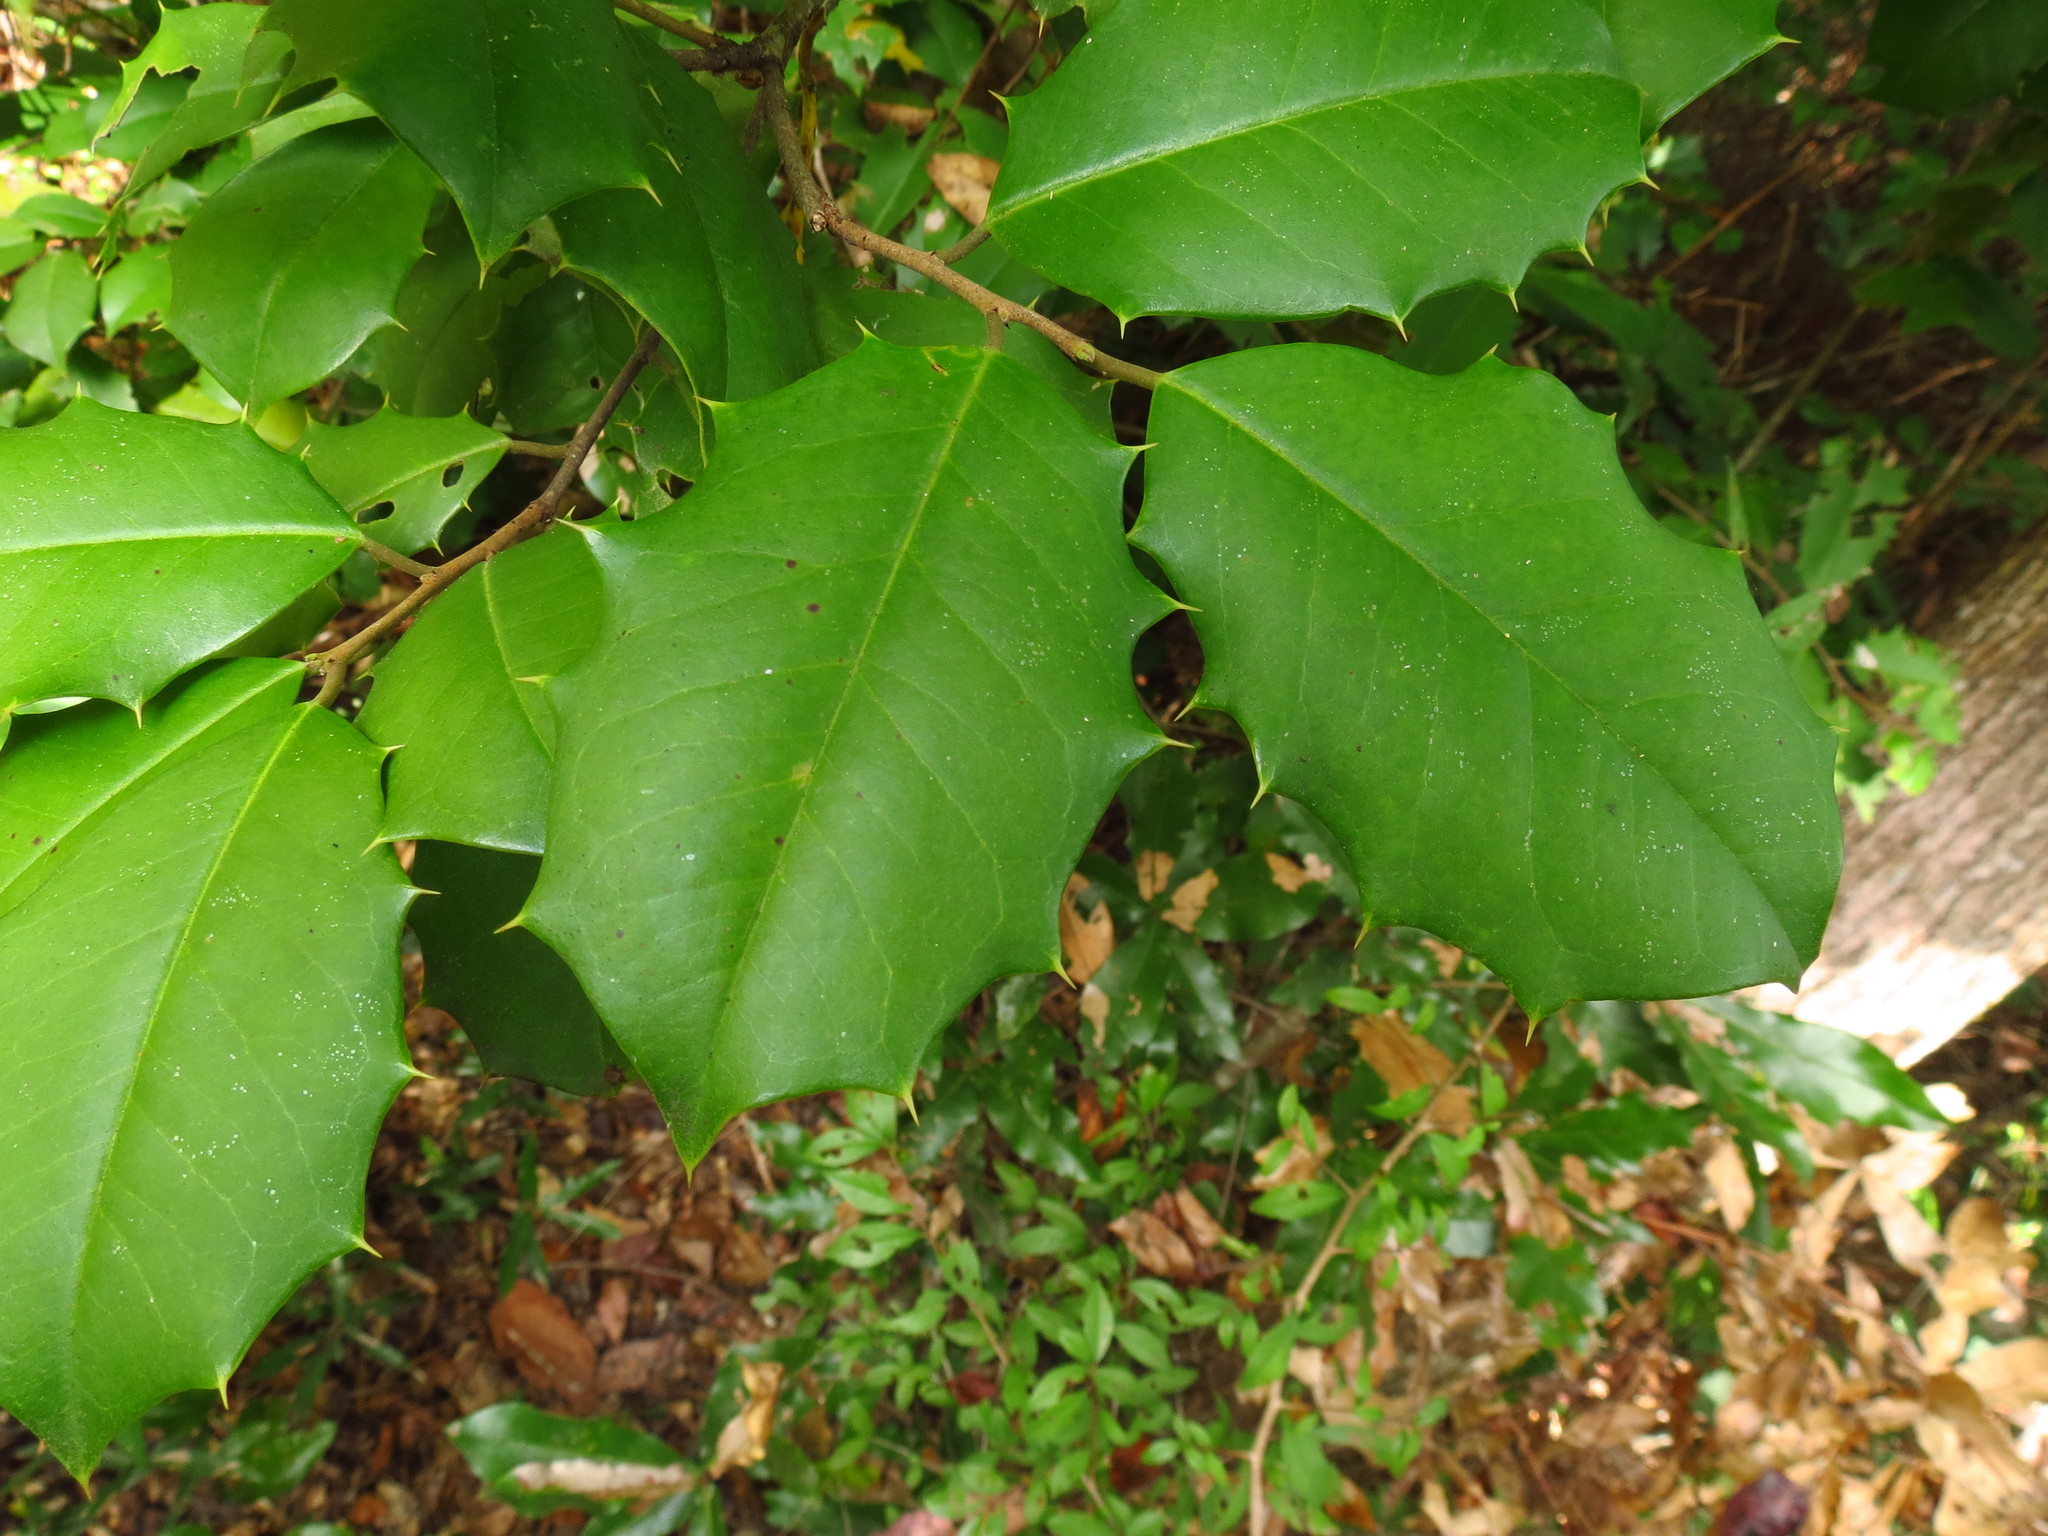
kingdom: Plantae
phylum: Tracheophyta
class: Magnoliopsida
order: Aquifoliales
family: Aquifoliaceae
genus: Ilex
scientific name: Ilex opaca
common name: American holly
